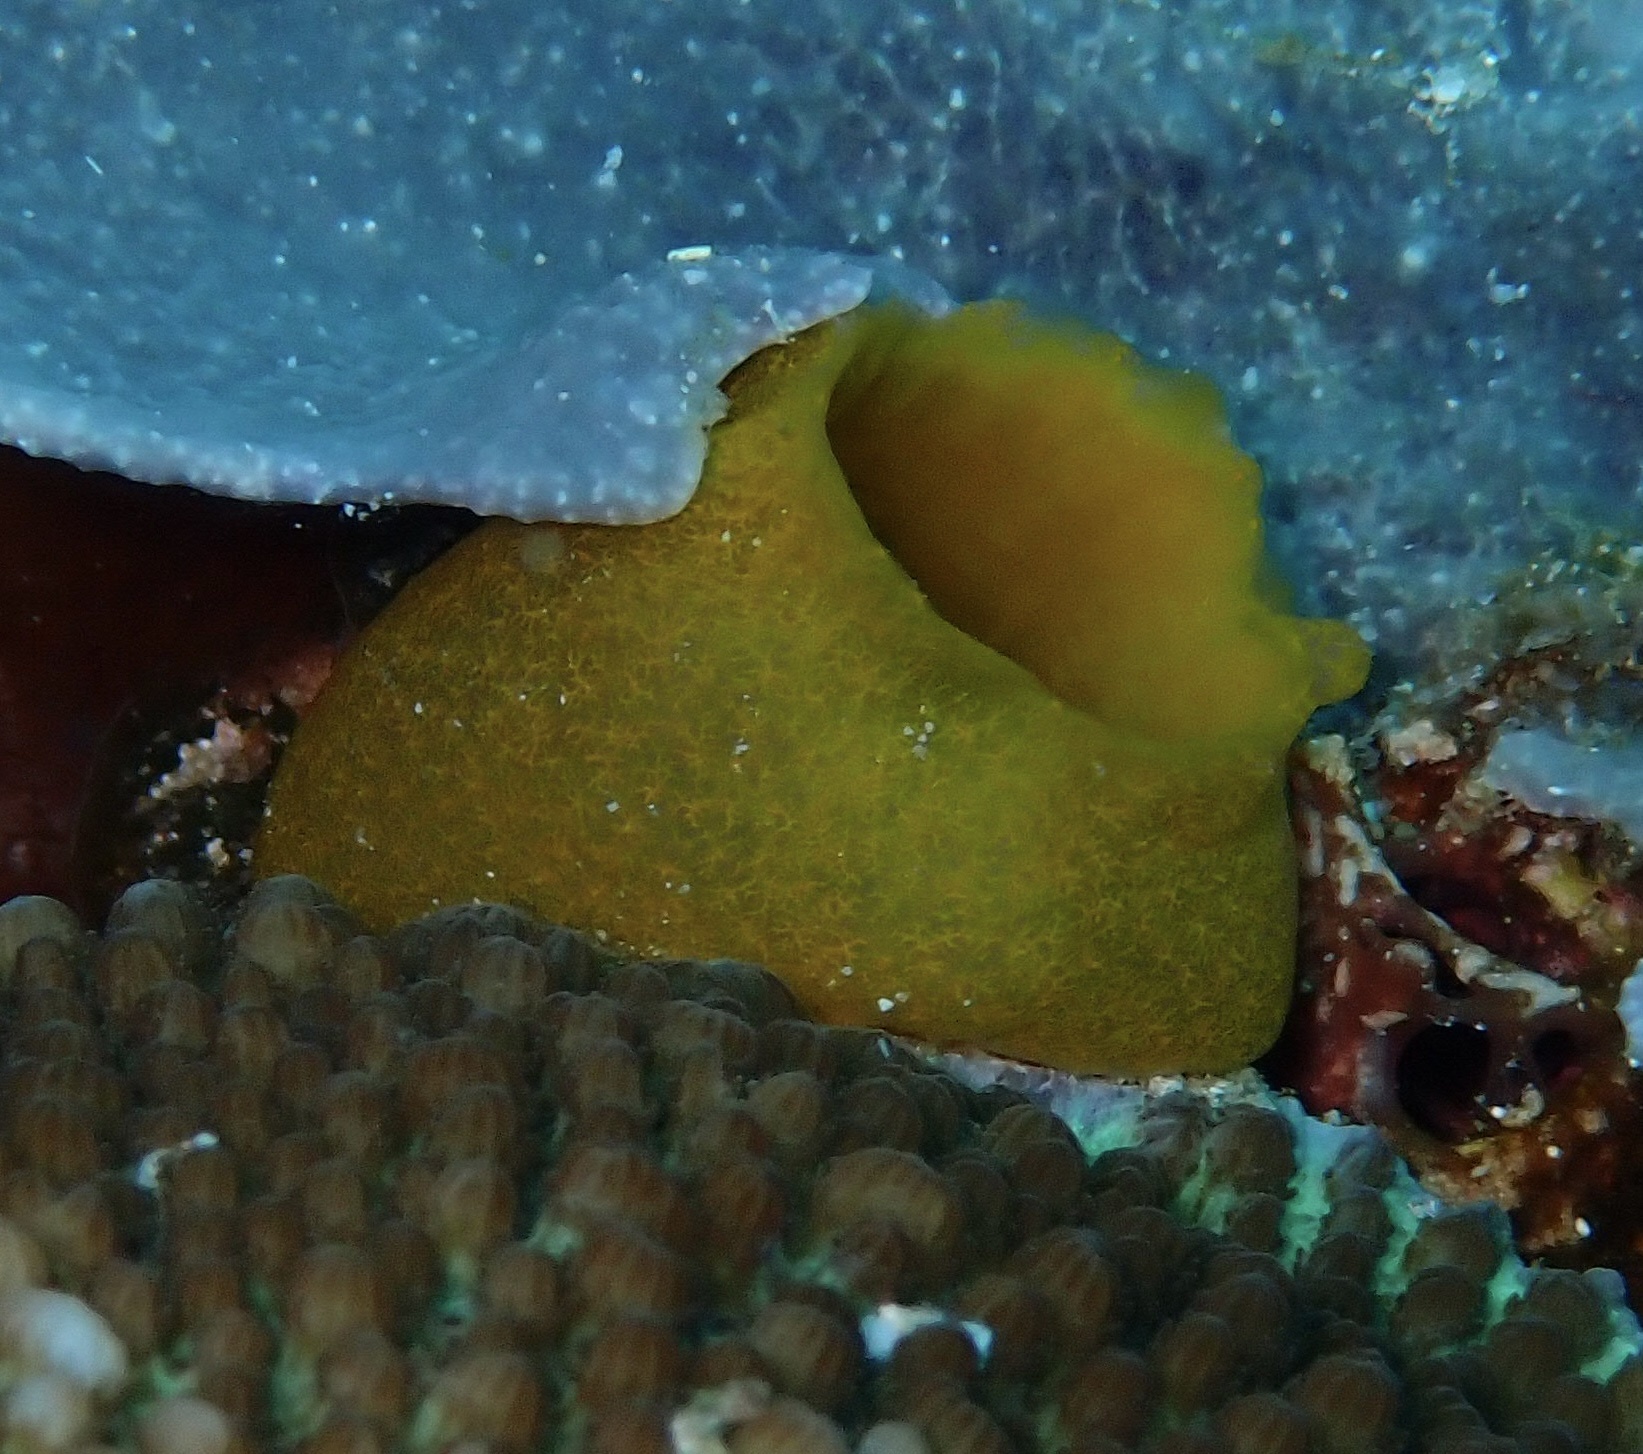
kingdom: Animalia
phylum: Chordata
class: Ascidiacea
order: Phlebobranchia
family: Ascidiidae
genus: Phallusia
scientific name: Phallusia julinea
